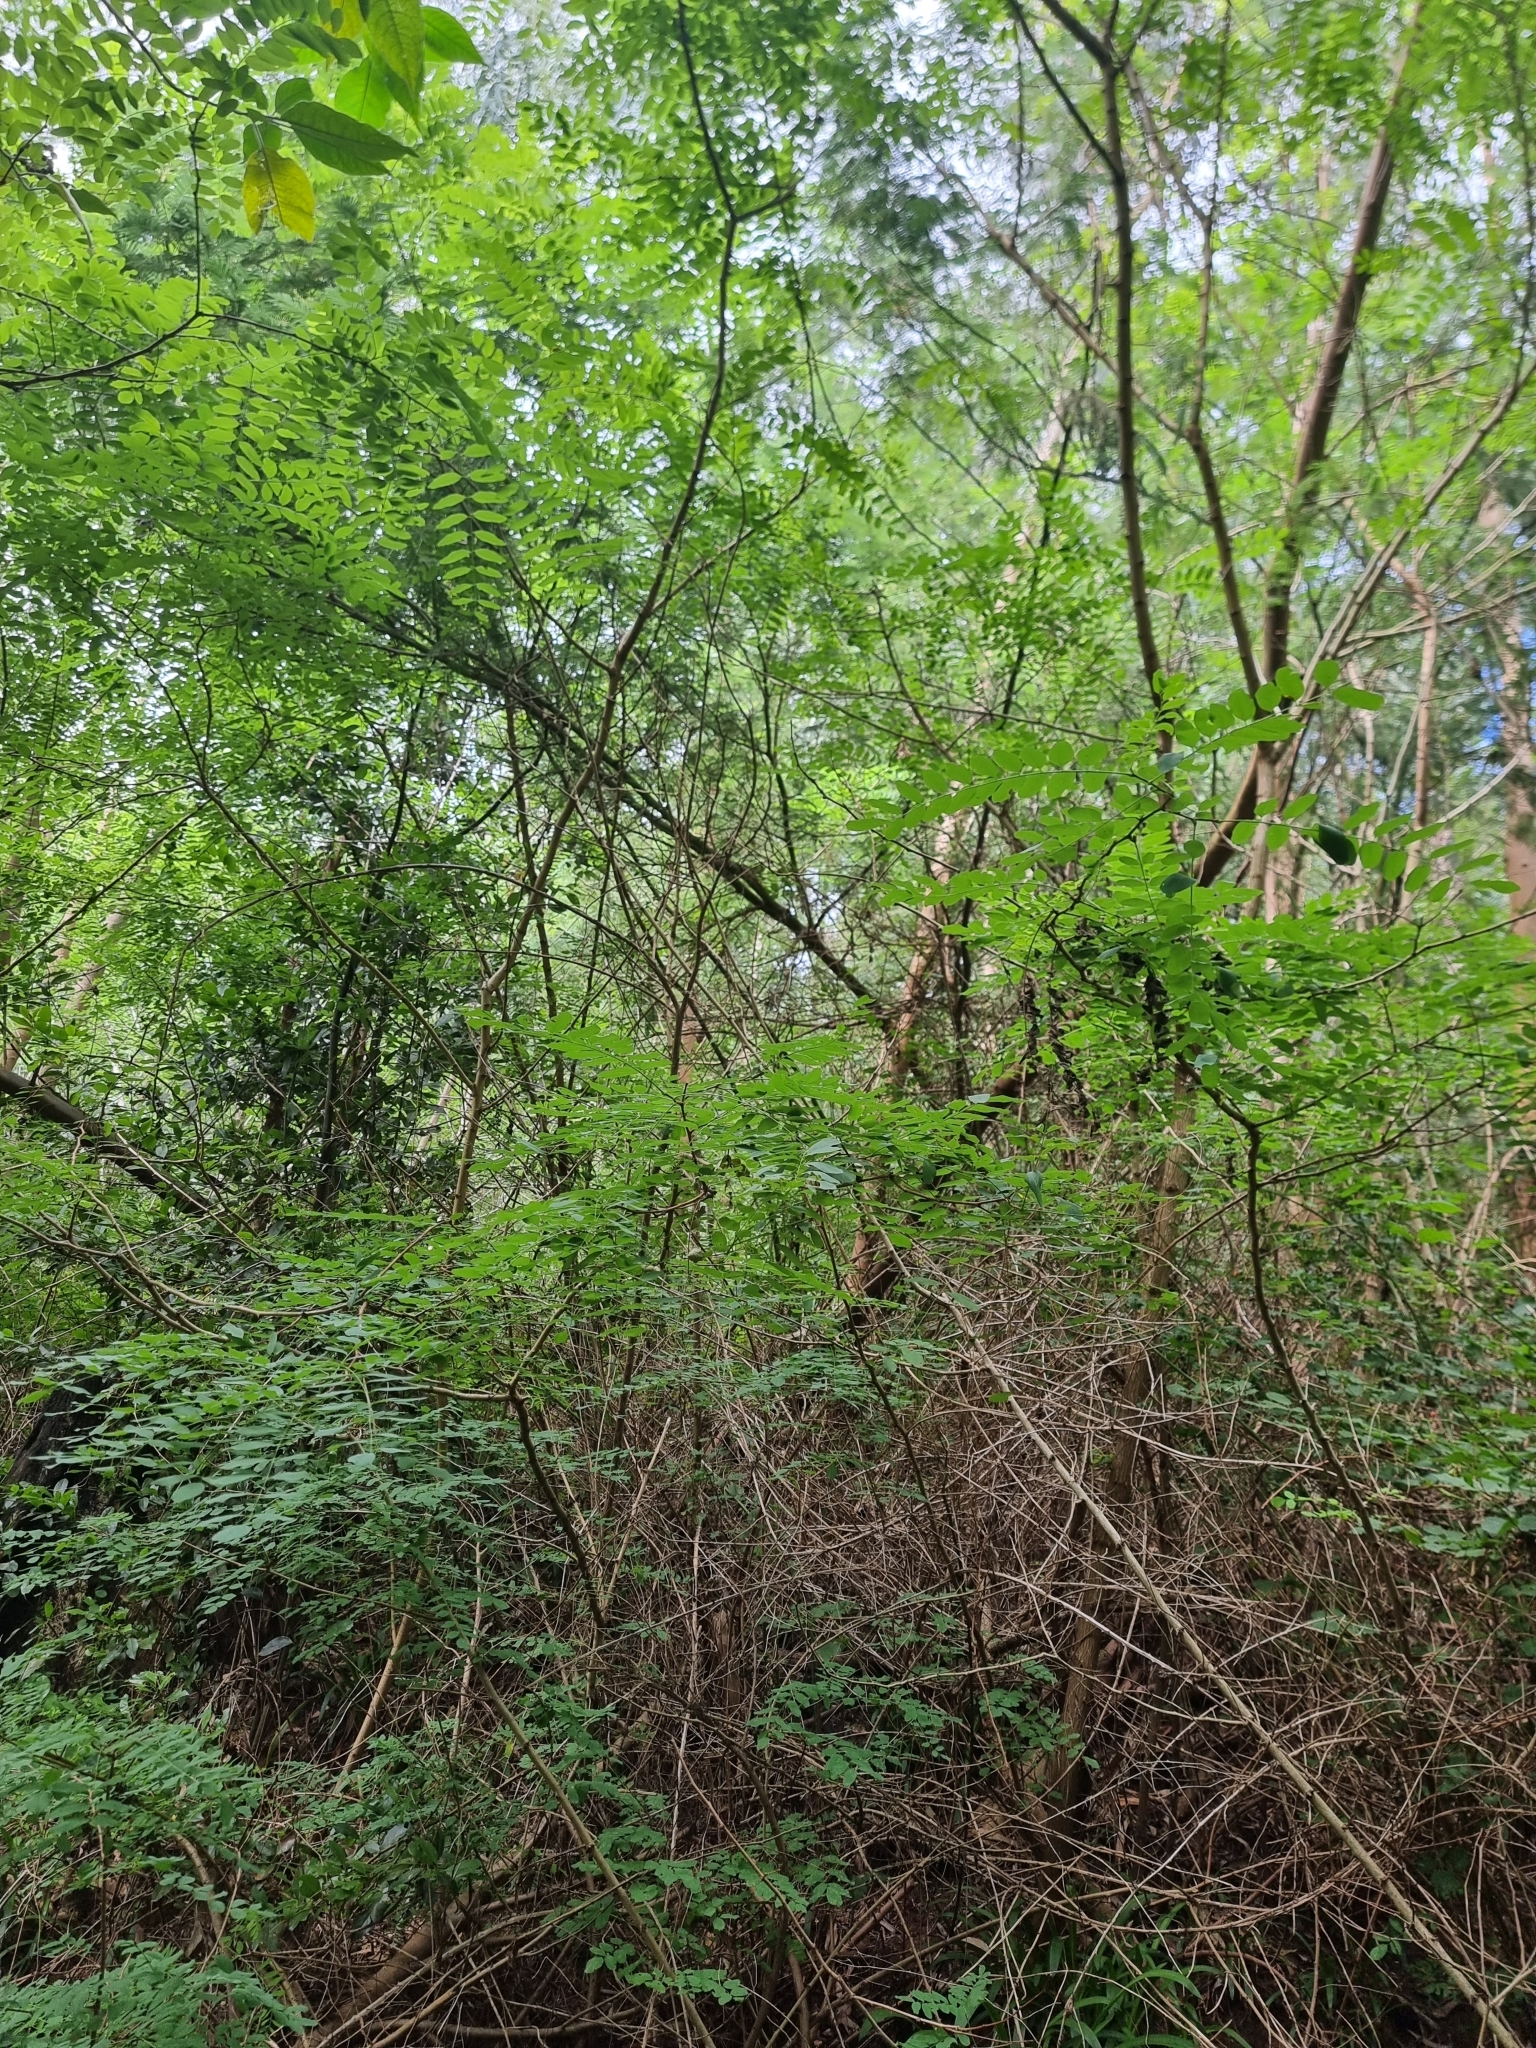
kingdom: Plantae
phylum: Tracheophyta
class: Magnoliopsida
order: Fabales
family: Fabaceae
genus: Robinia
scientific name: Robinia pseudoacacia
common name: Black locust
